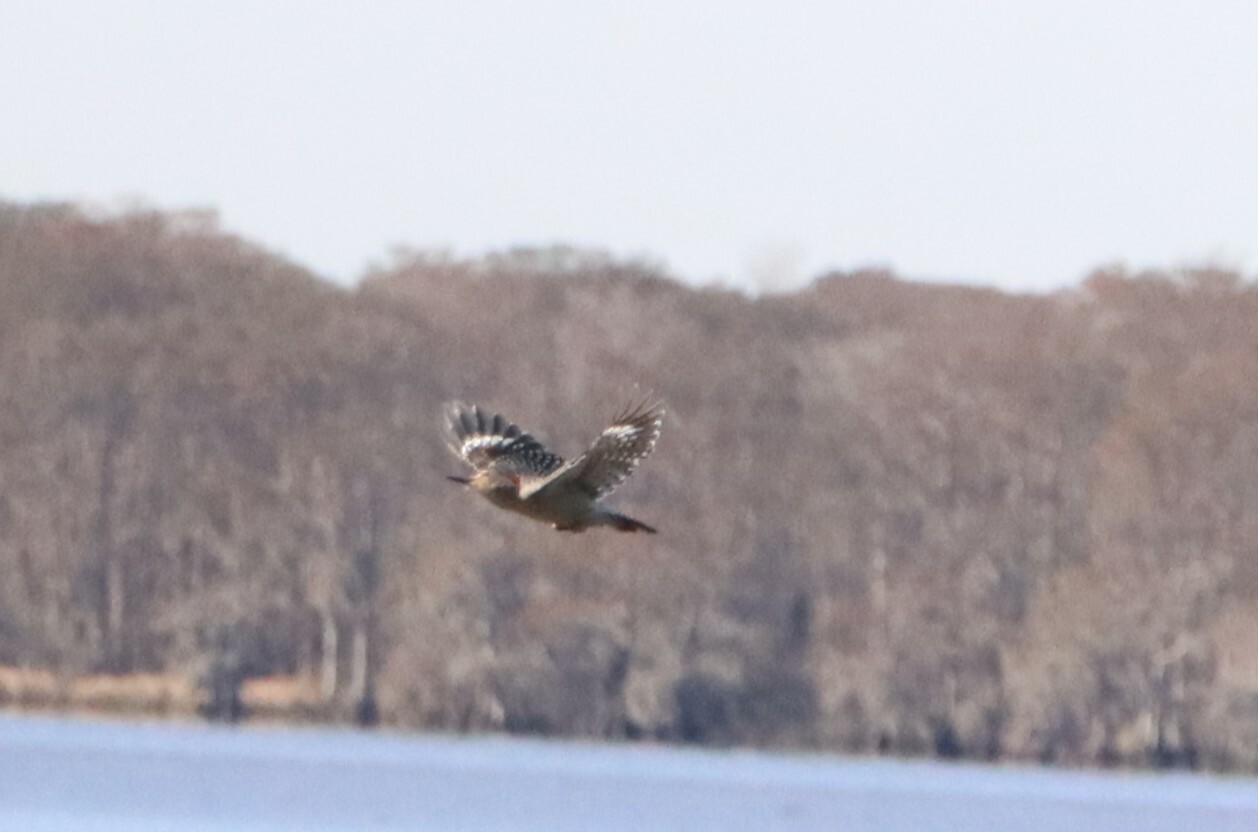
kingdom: Animalia
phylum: Chordata
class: Aves
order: Piciformes
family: Picidae
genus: Melanerpes
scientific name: Melanerpes carolinus
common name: Red-bellied woodpecker
